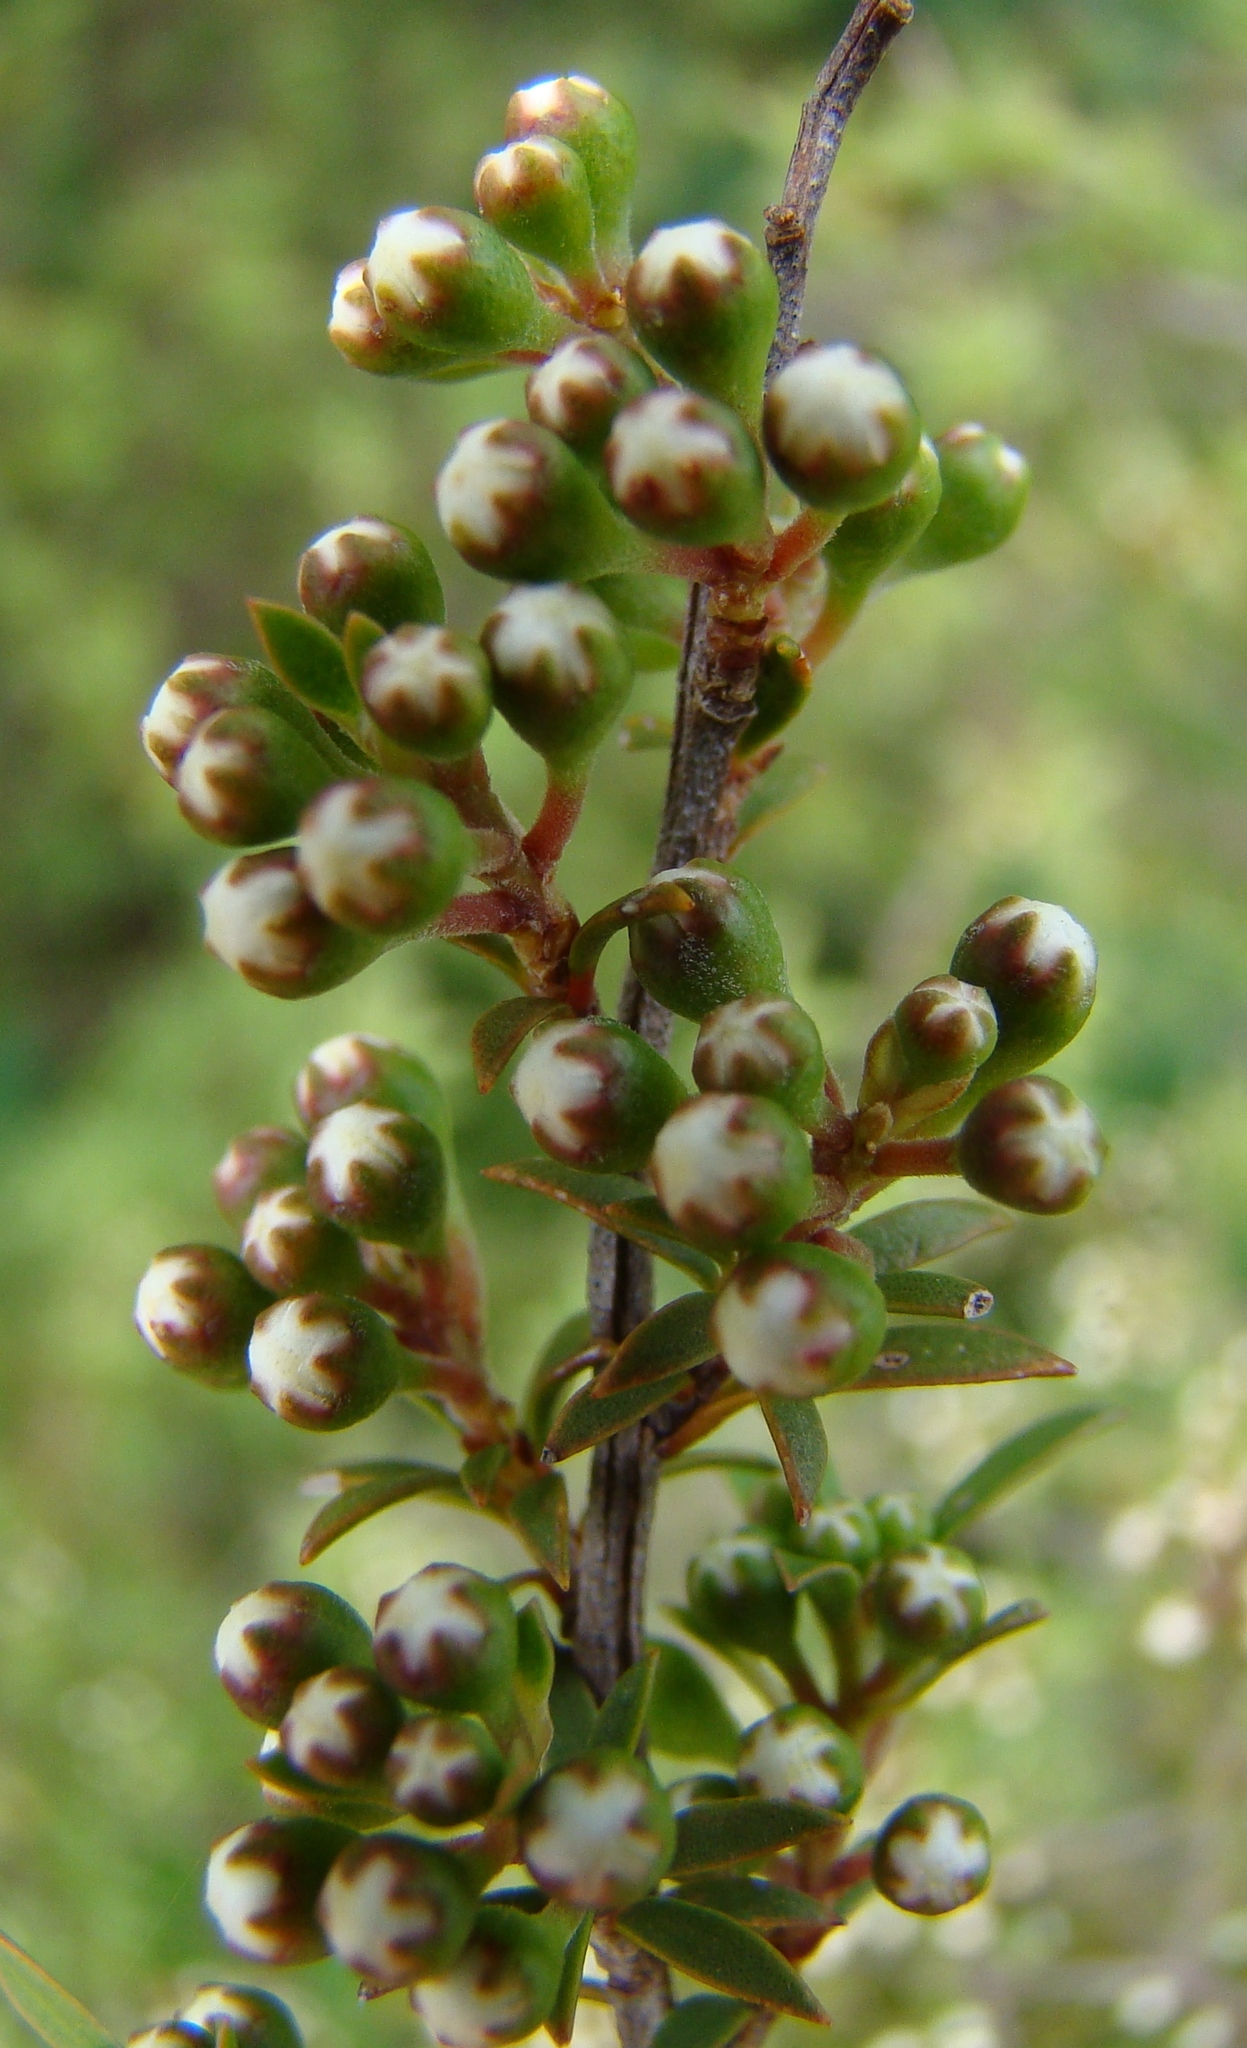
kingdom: Plantae
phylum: Tracheophyta
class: Magnoliopsida
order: Myrtales
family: Myrtaceae
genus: Kunzea
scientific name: Kunzea robusta
